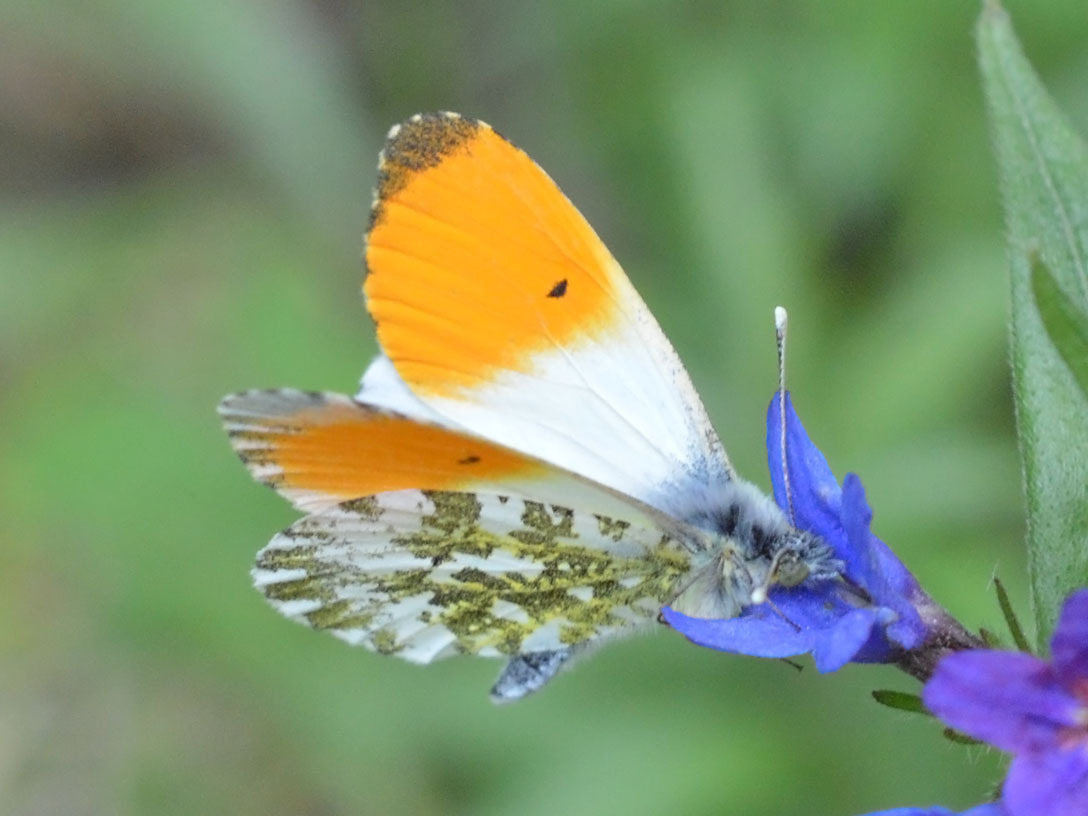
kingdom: Animalia
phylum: Arthropoda
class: Insecta
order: Lepidoptera
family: Pieridae
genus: Anthocharis
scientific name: Anthocharis cardamines
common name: Orange-tip
